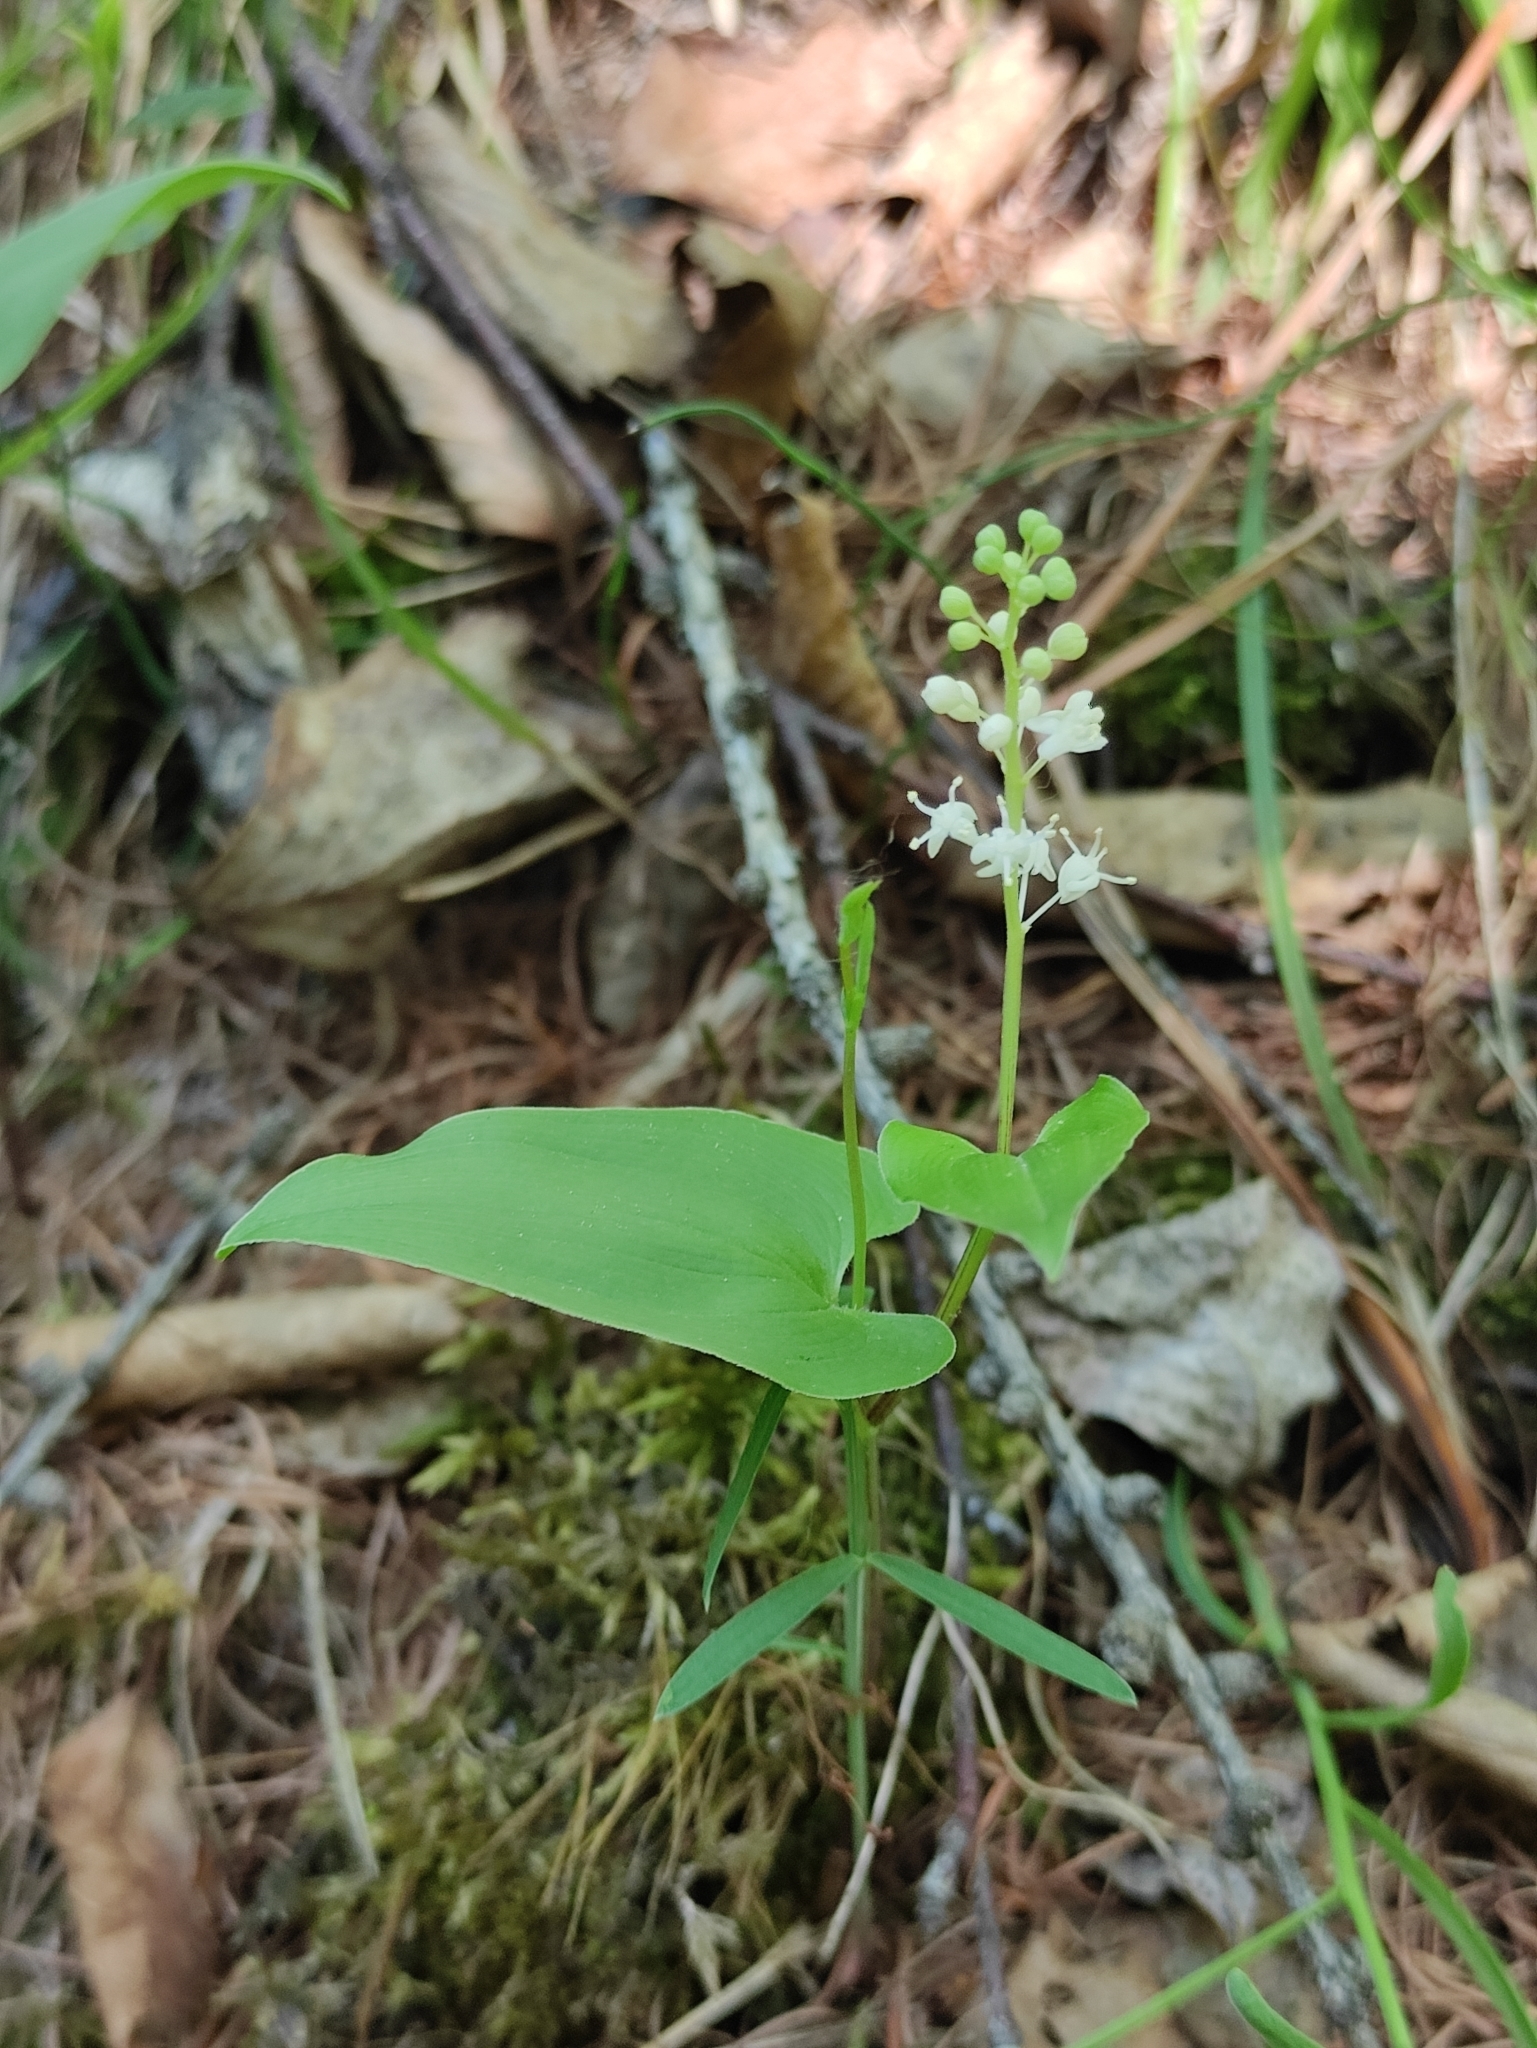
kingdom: Plantae
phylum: Tracheophyta
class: Liliopsida
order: Asparagales
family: Asparagaceae
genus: Maianthemum
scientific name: Maianthemum bifolium
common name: May lily
